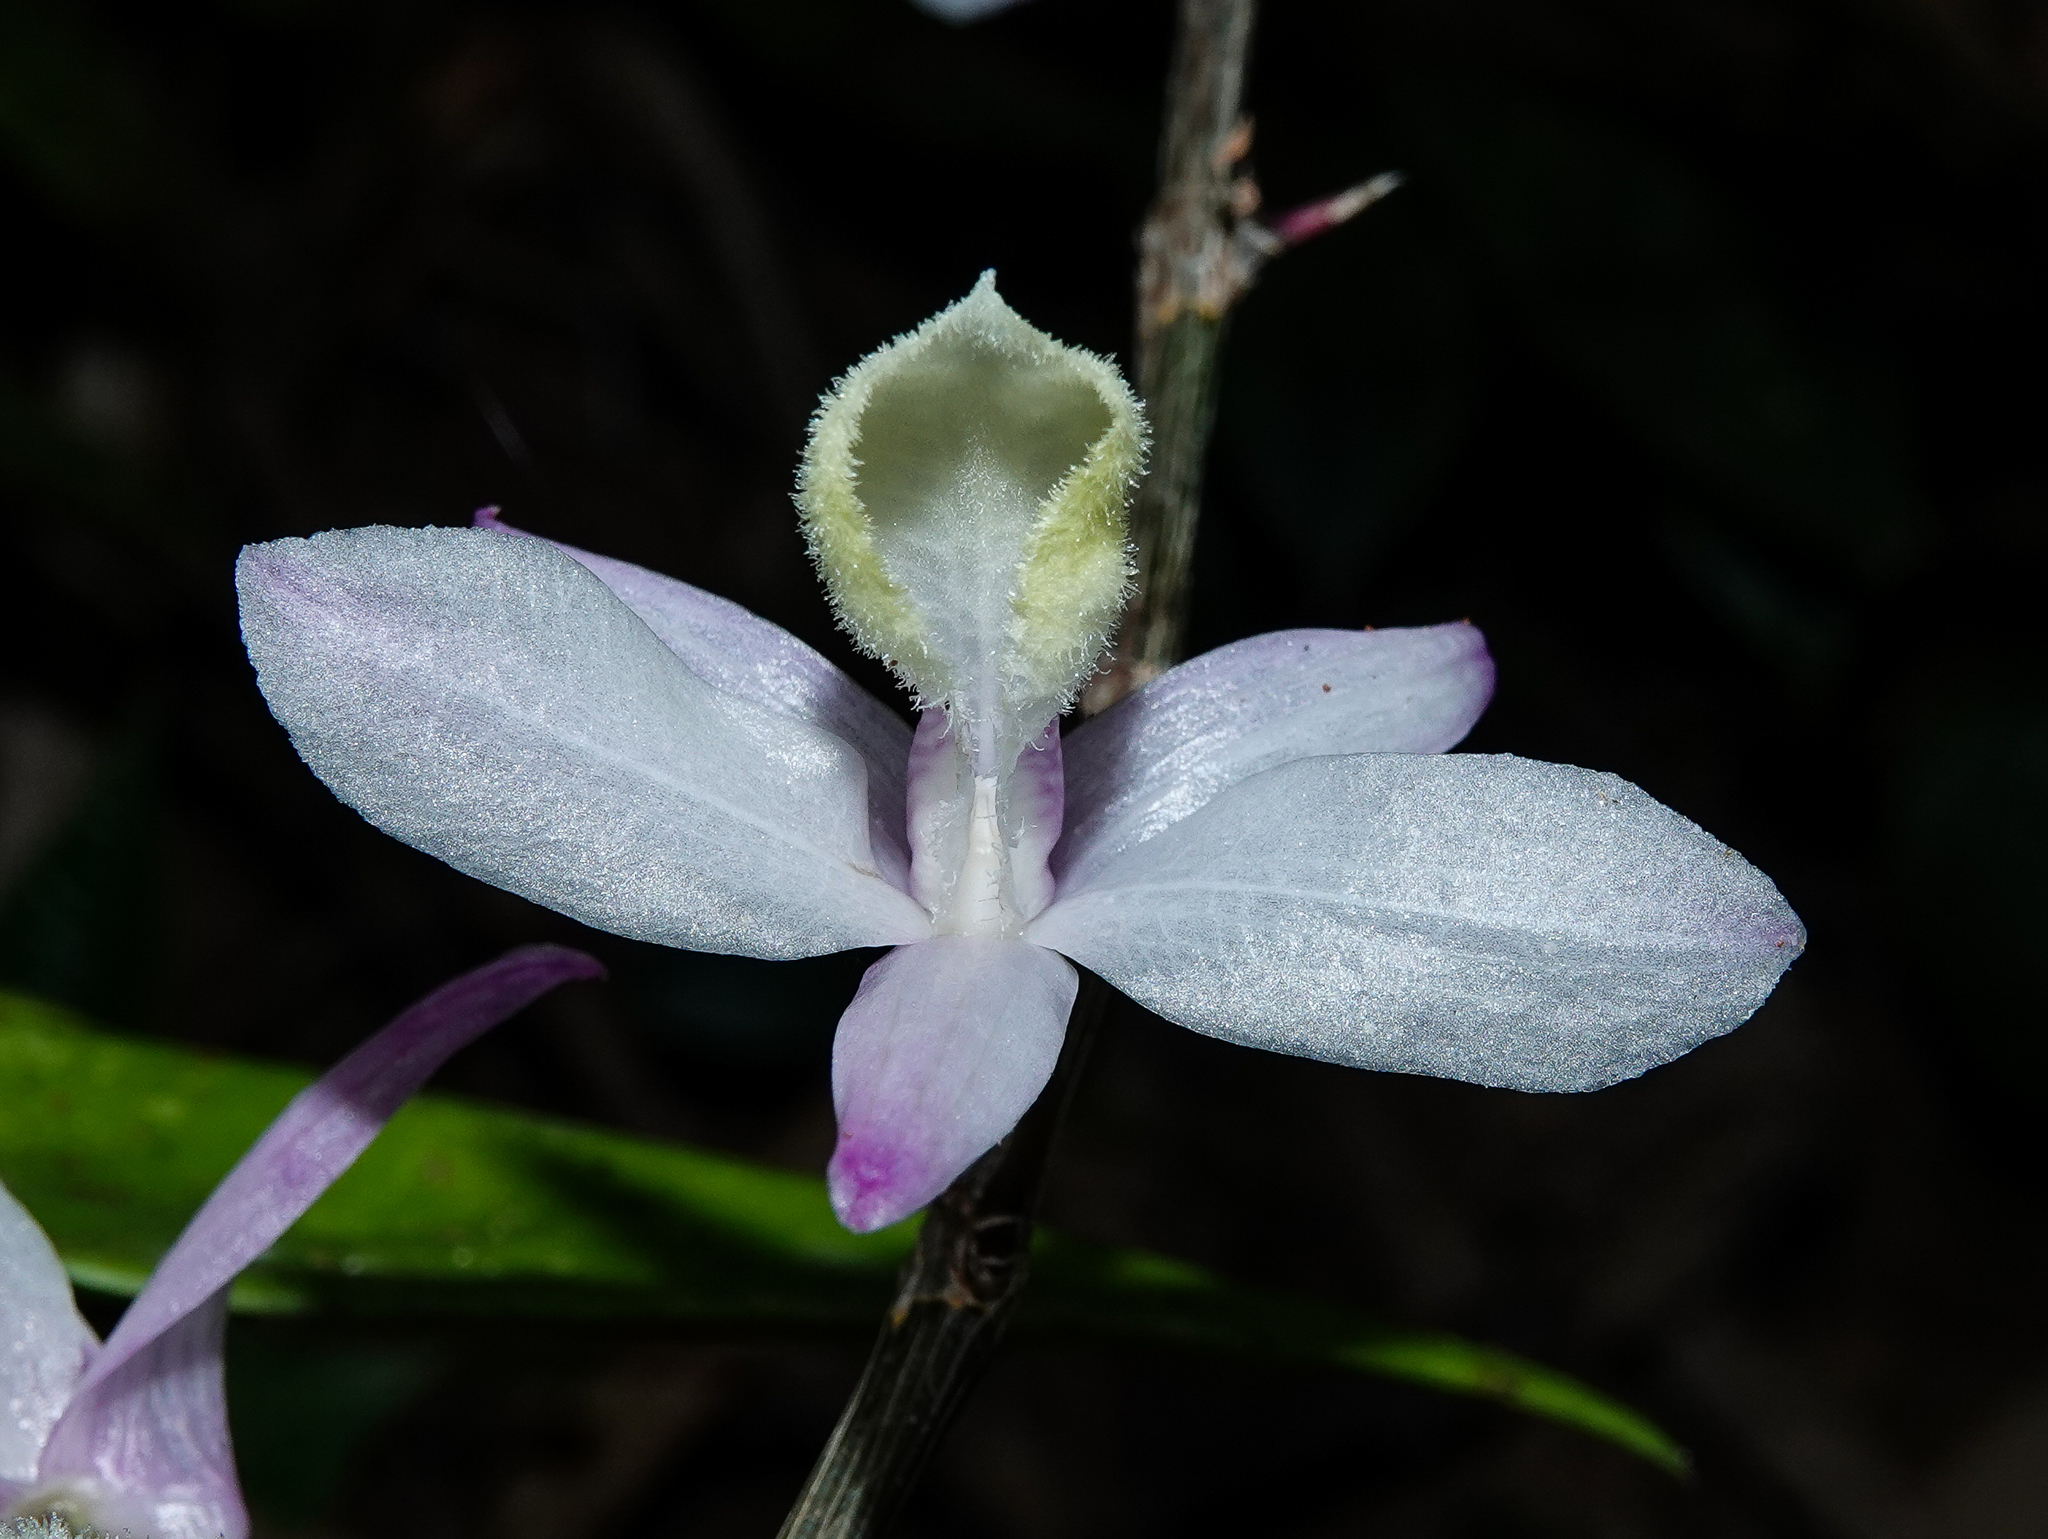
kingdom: Plantae
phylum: Tracheophyta
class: Liliopsida
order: Asparagales
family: Orchidaceae
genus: Dendrobium
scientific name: Dendrobium aphyllum
